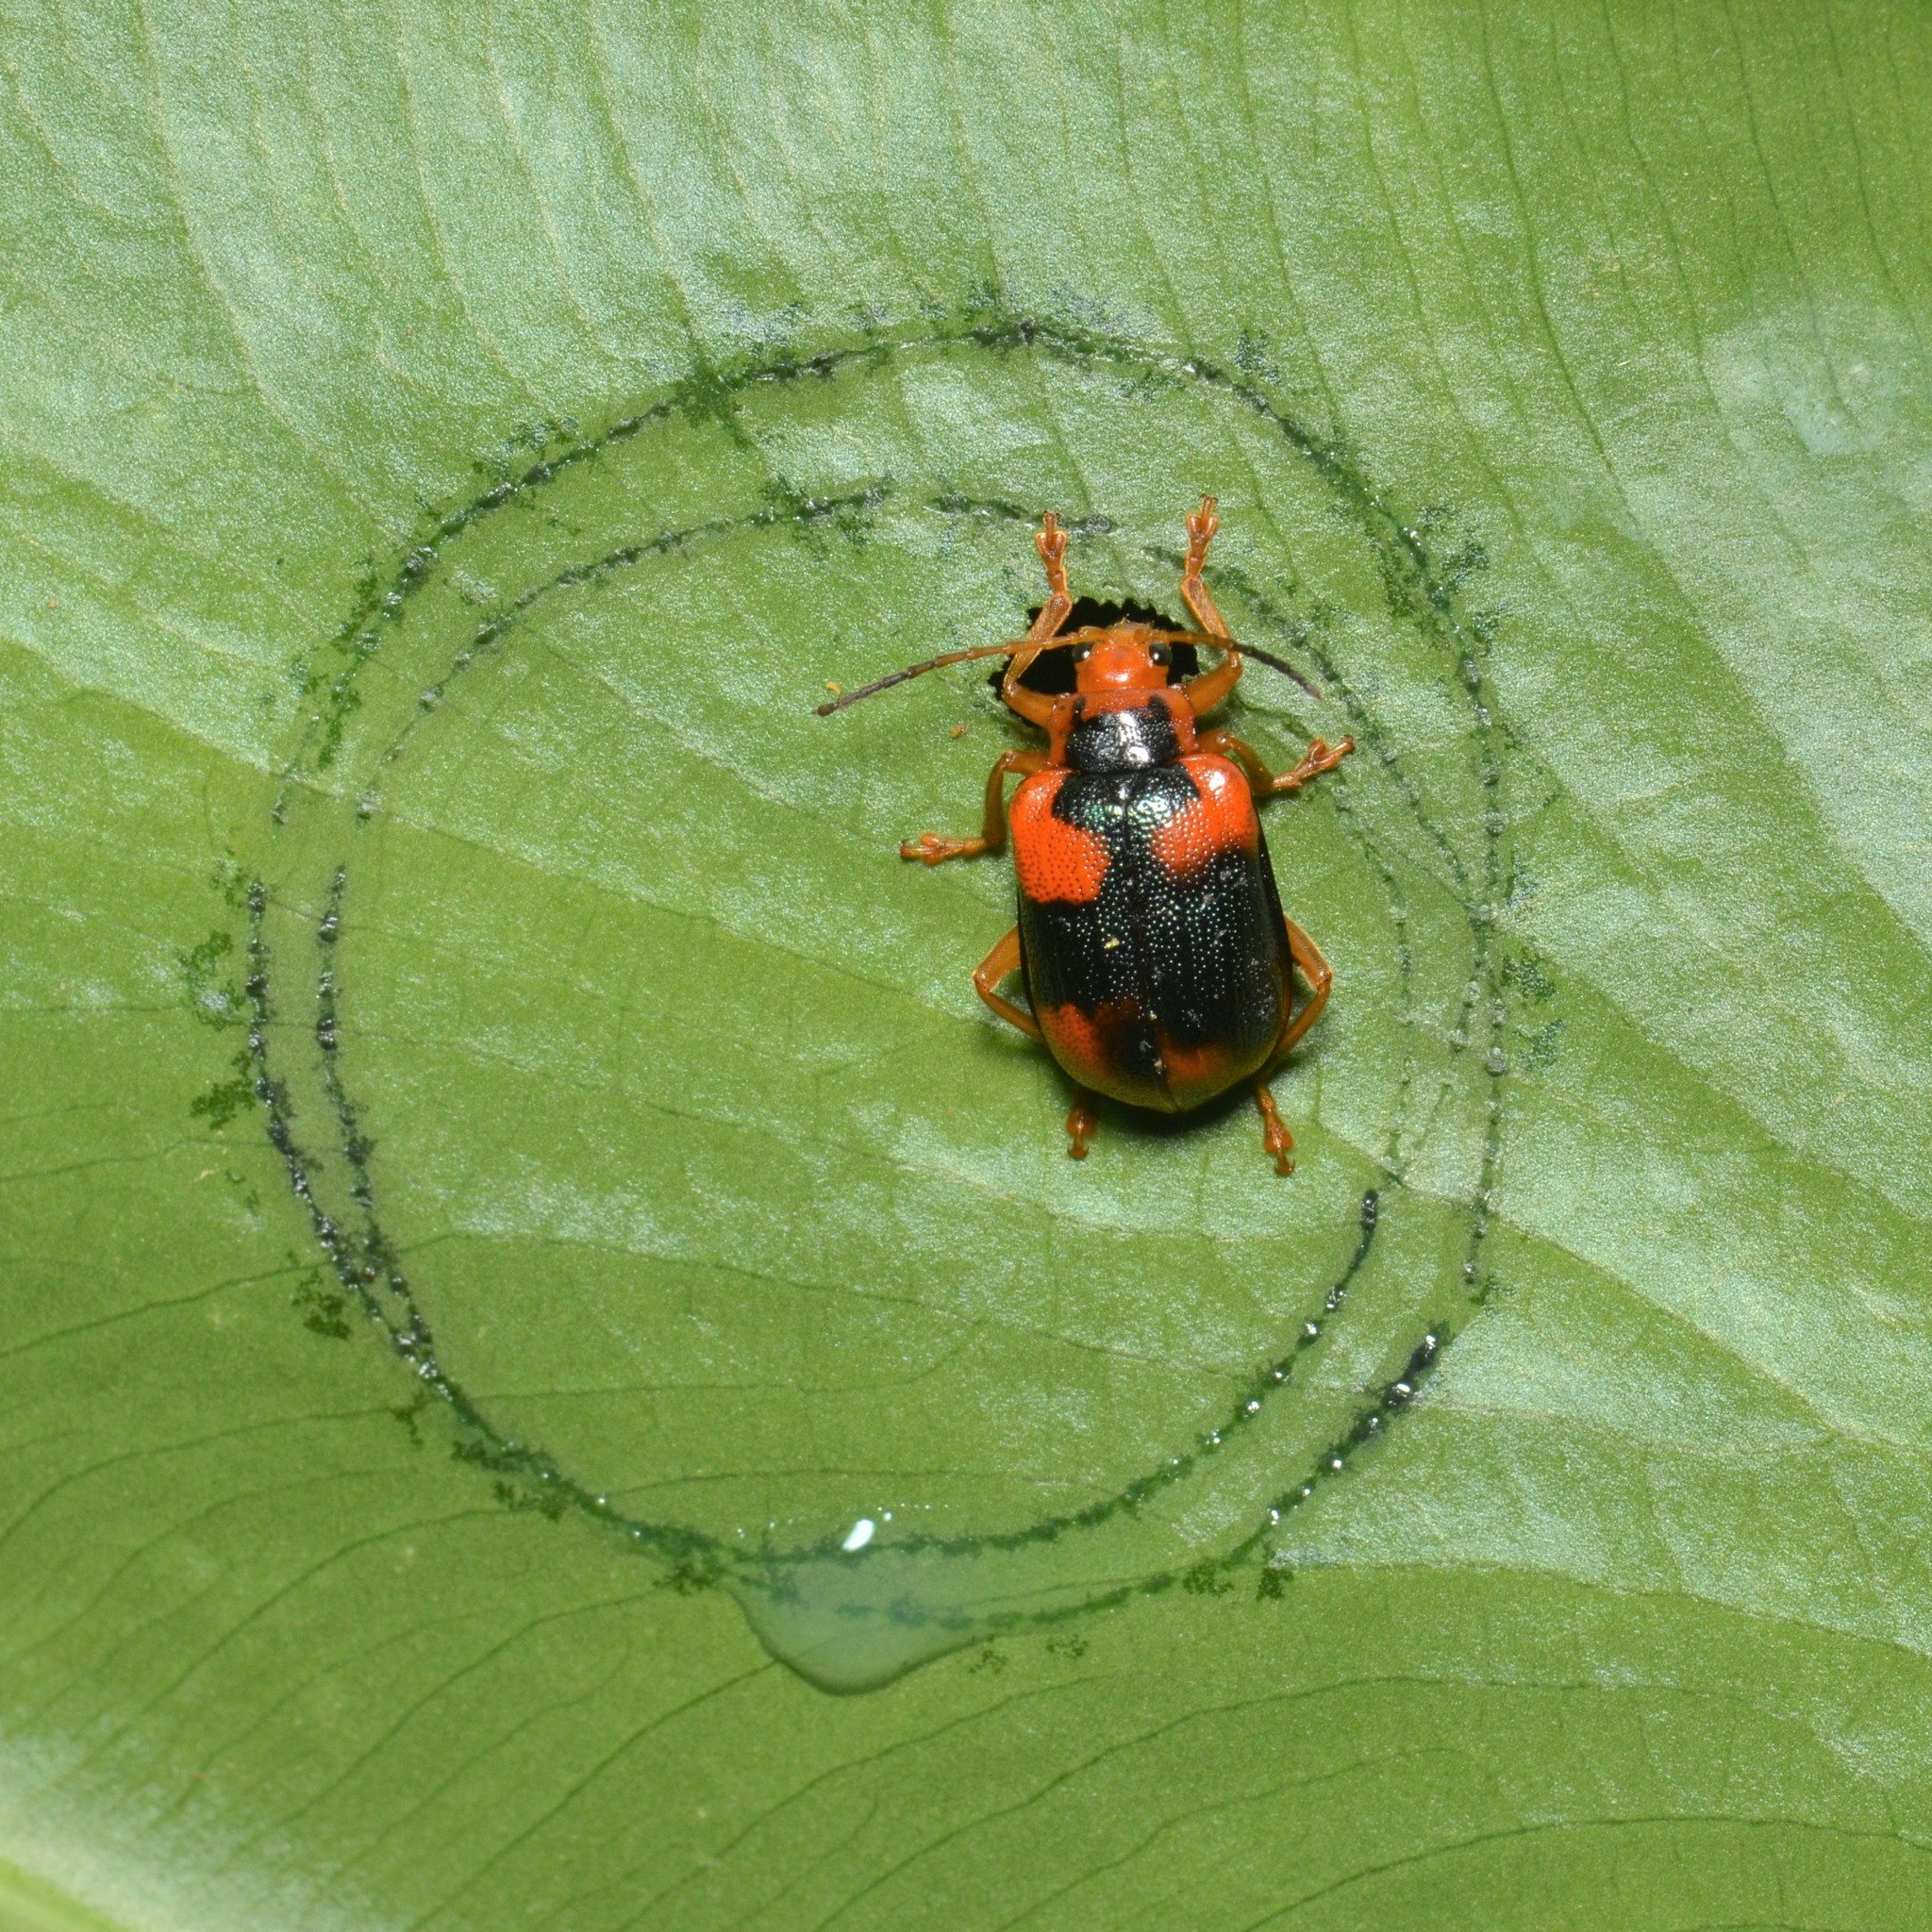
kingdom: Animalia
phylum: Arthropoda
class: Insecta
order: Coleoptera
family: Chrysomelidae
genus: Aplosonyx
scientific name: Aplosonyx ancora
